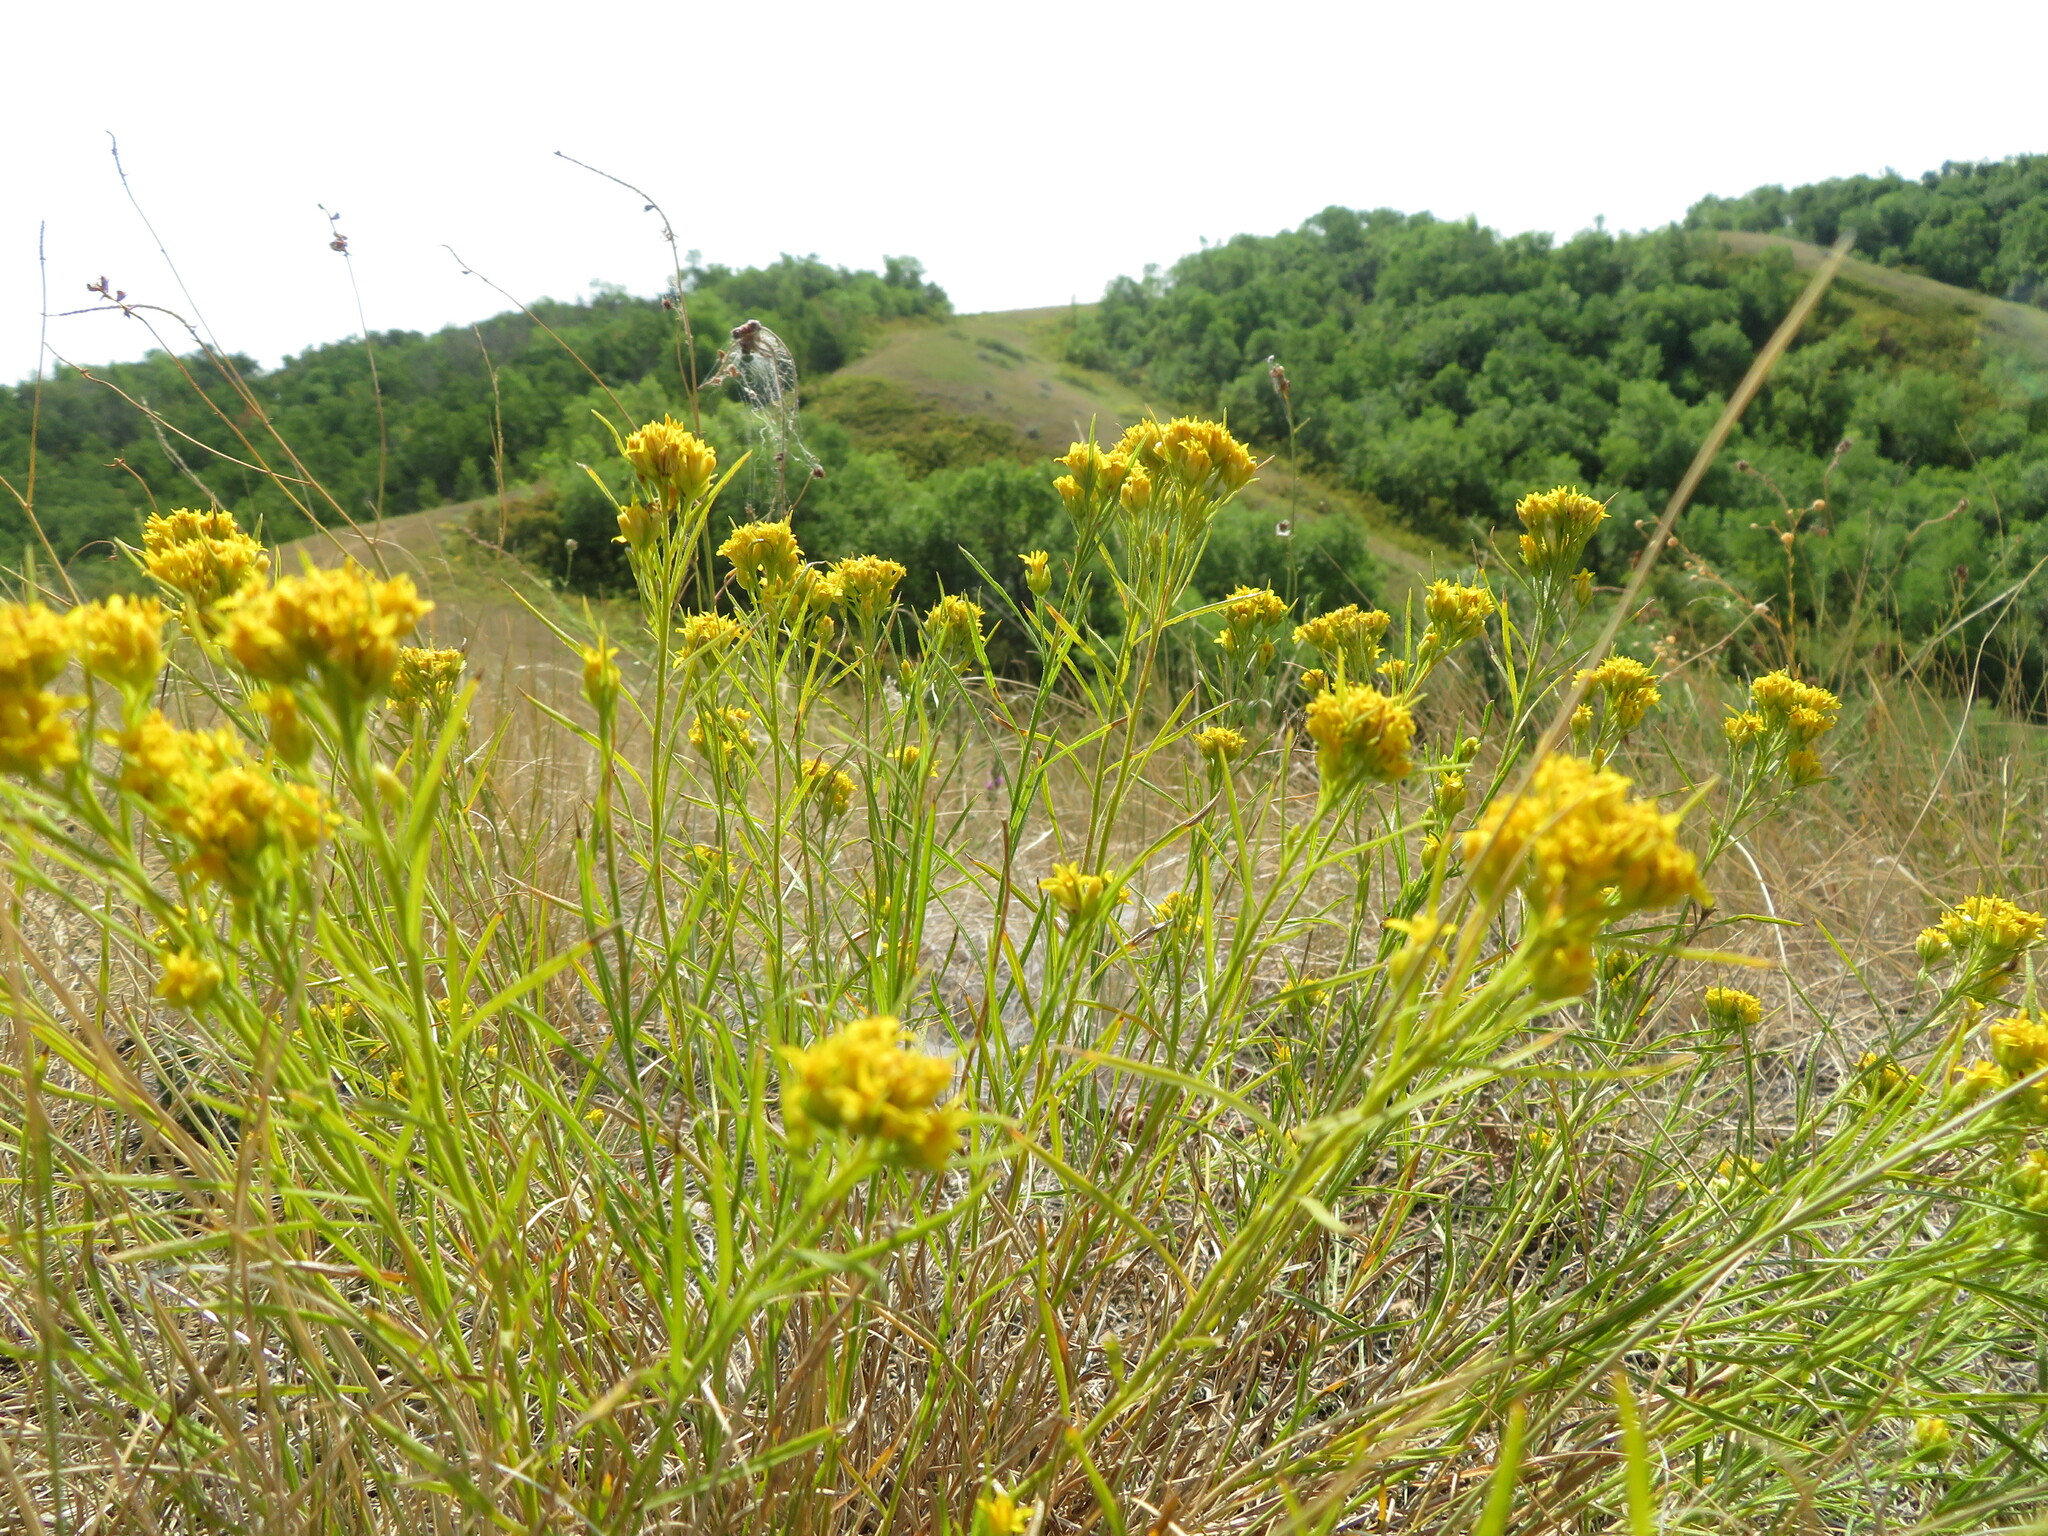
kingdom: Plantae
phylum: Tracheophyta
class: Magnoliopsida
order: Asterales
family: Asteraceae
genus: Gutierrezia
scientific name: Gutierrezia sarothrae
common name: Broom snakeweed
